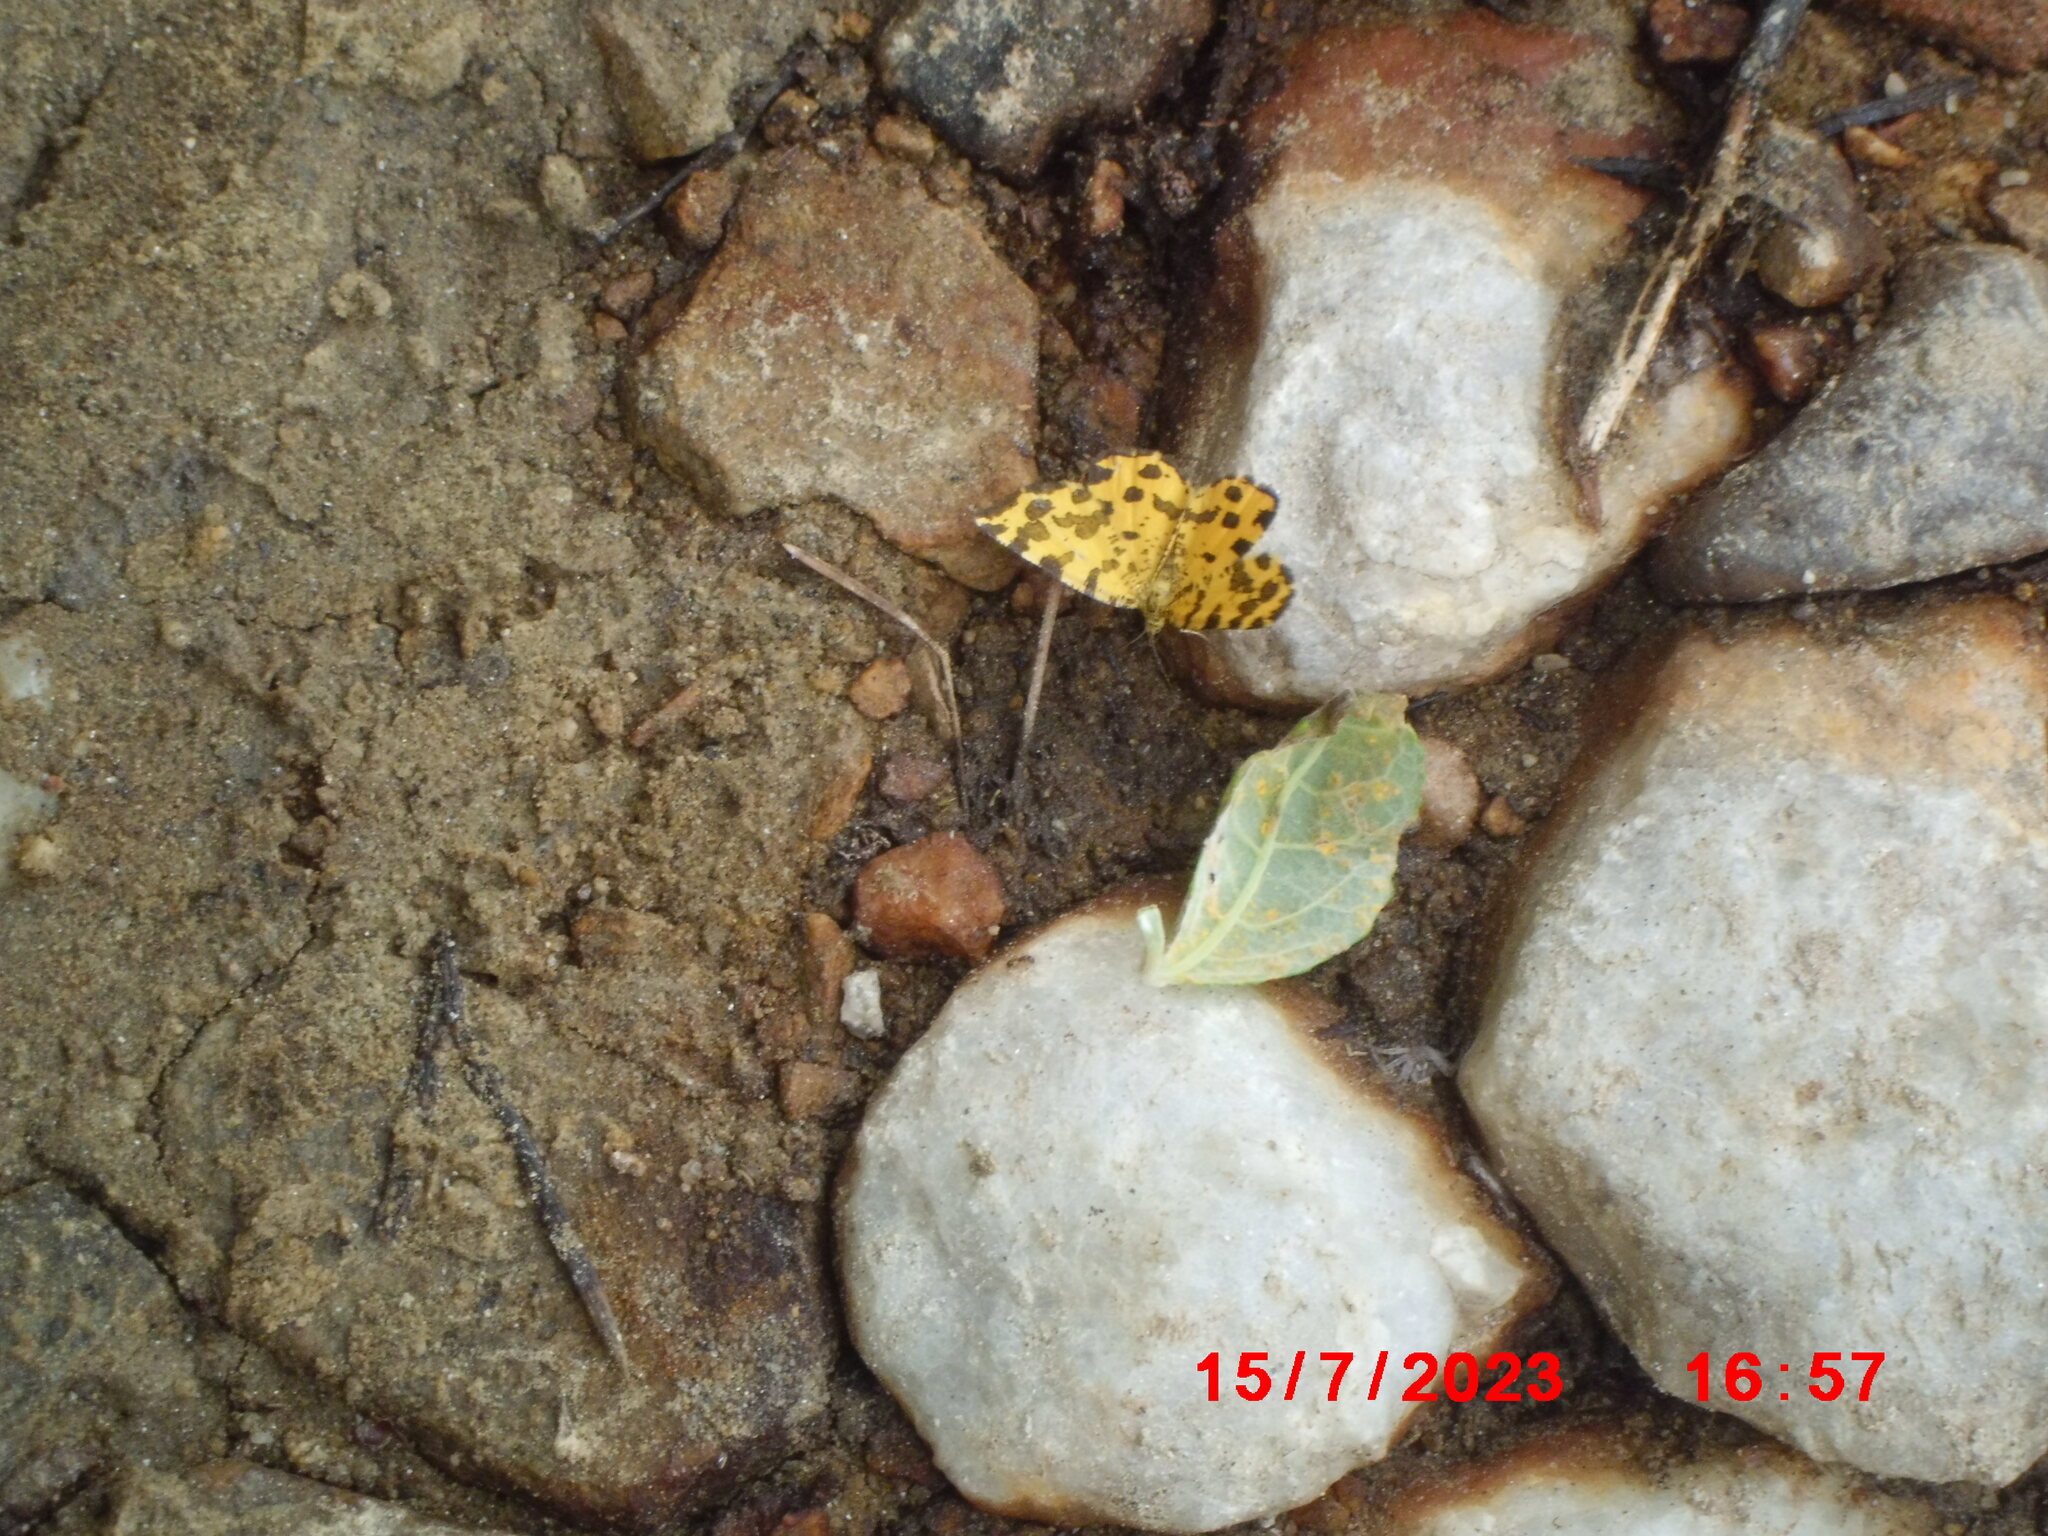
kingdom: Animalia
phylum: Arthropoda
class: Insecta
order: Lepidoptera
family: Geometridae
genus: Pseudopanthera
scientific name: Pseudopanthera macularia
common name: Speckled yellow
